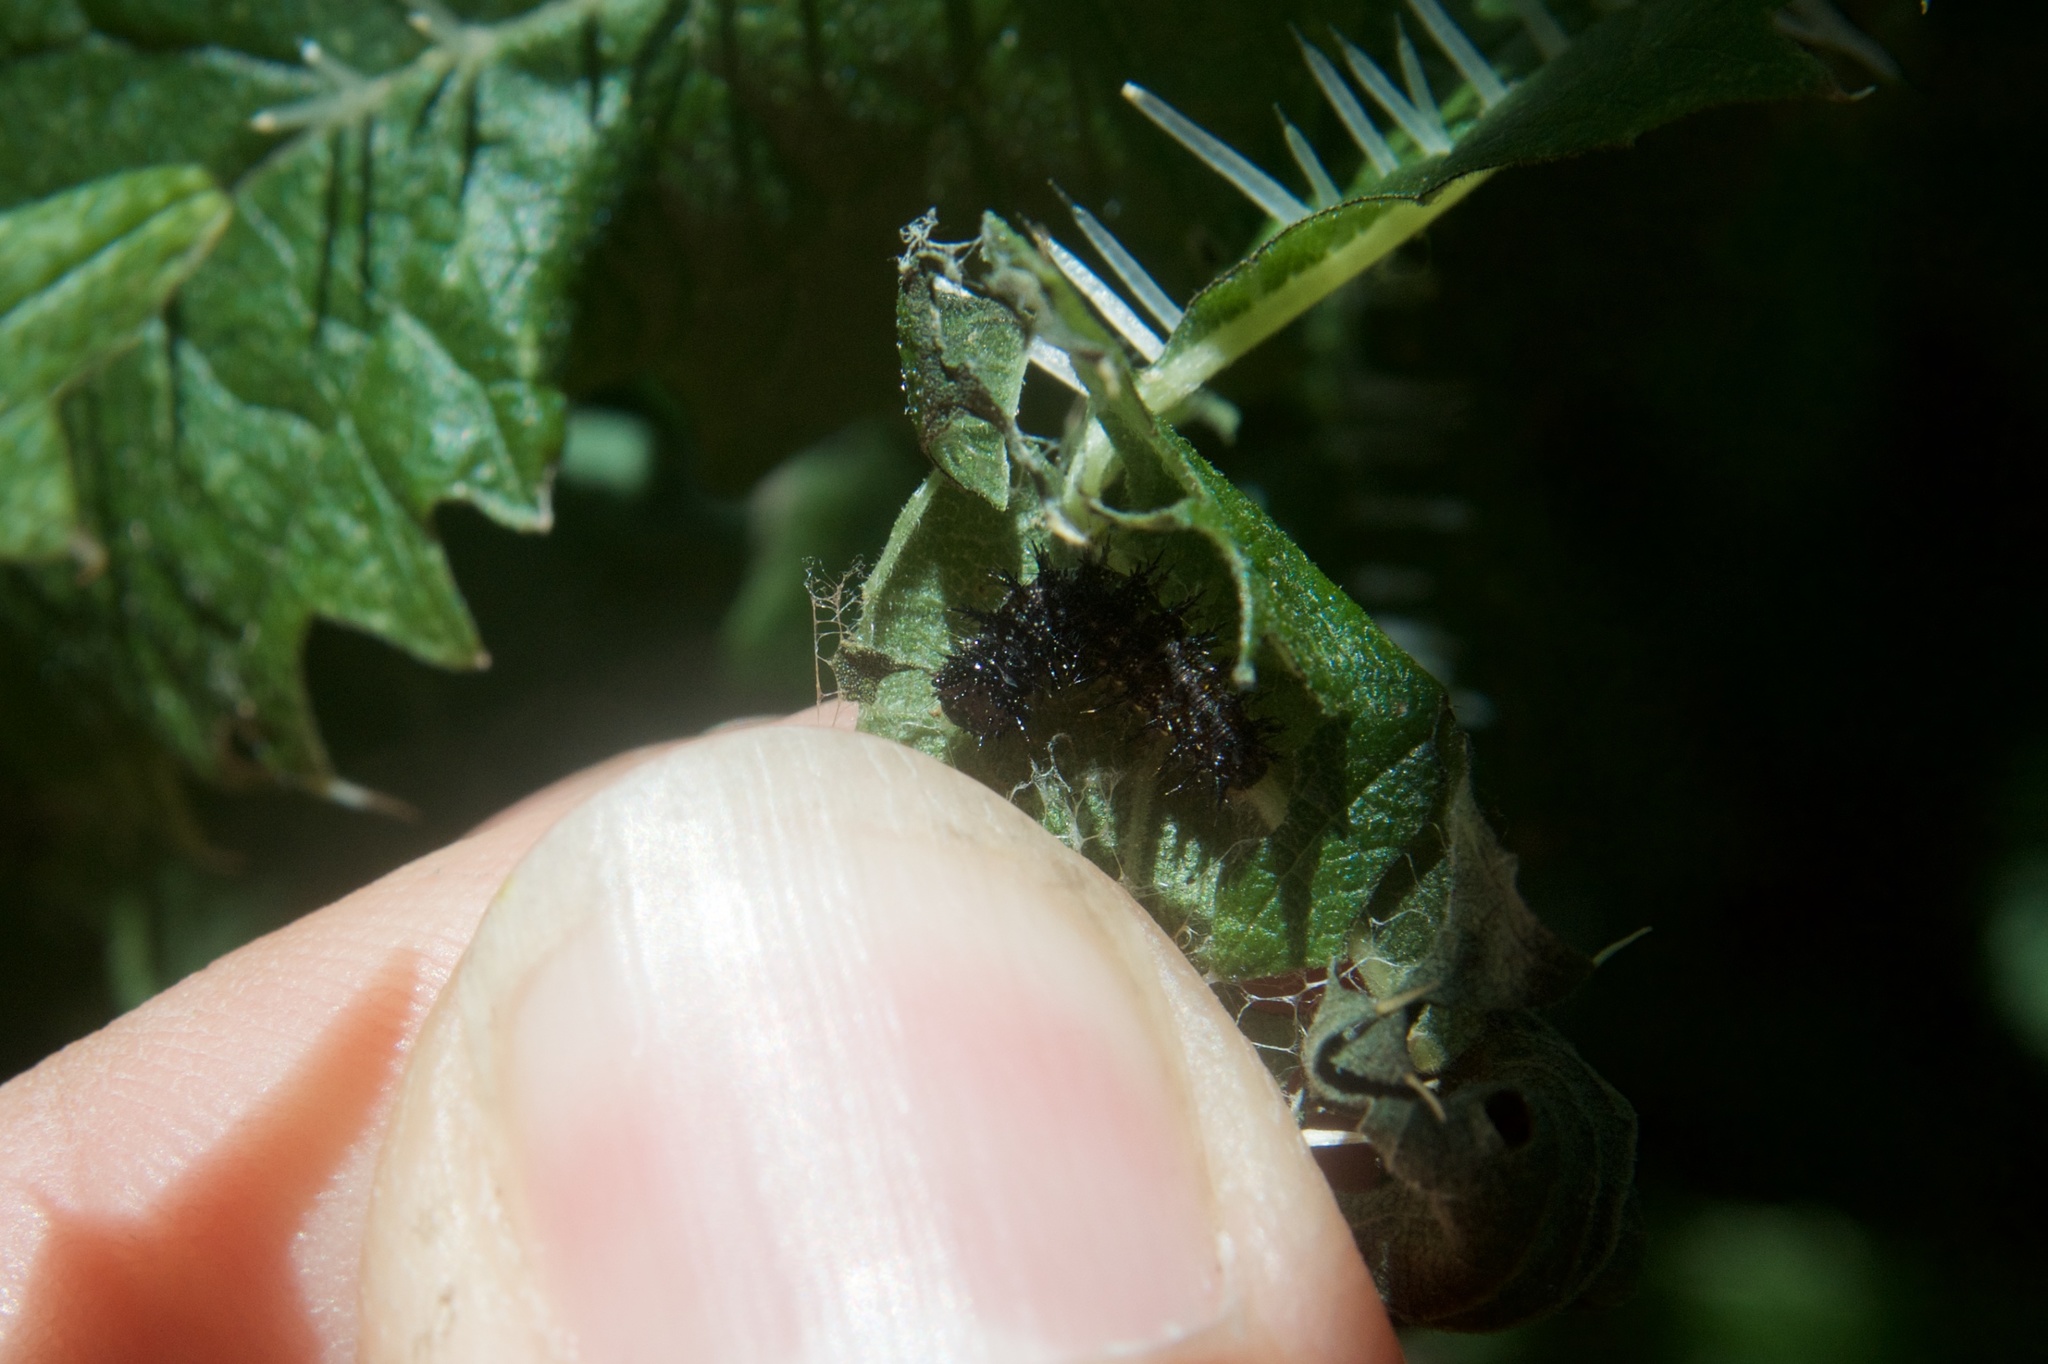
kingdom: Animalia
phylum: Arthropoda
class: Insecta
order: Lepidoptera
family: Nymphalidae
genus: Vanessa
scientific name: Vanessa gonerilla
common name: New zealand red admiral
